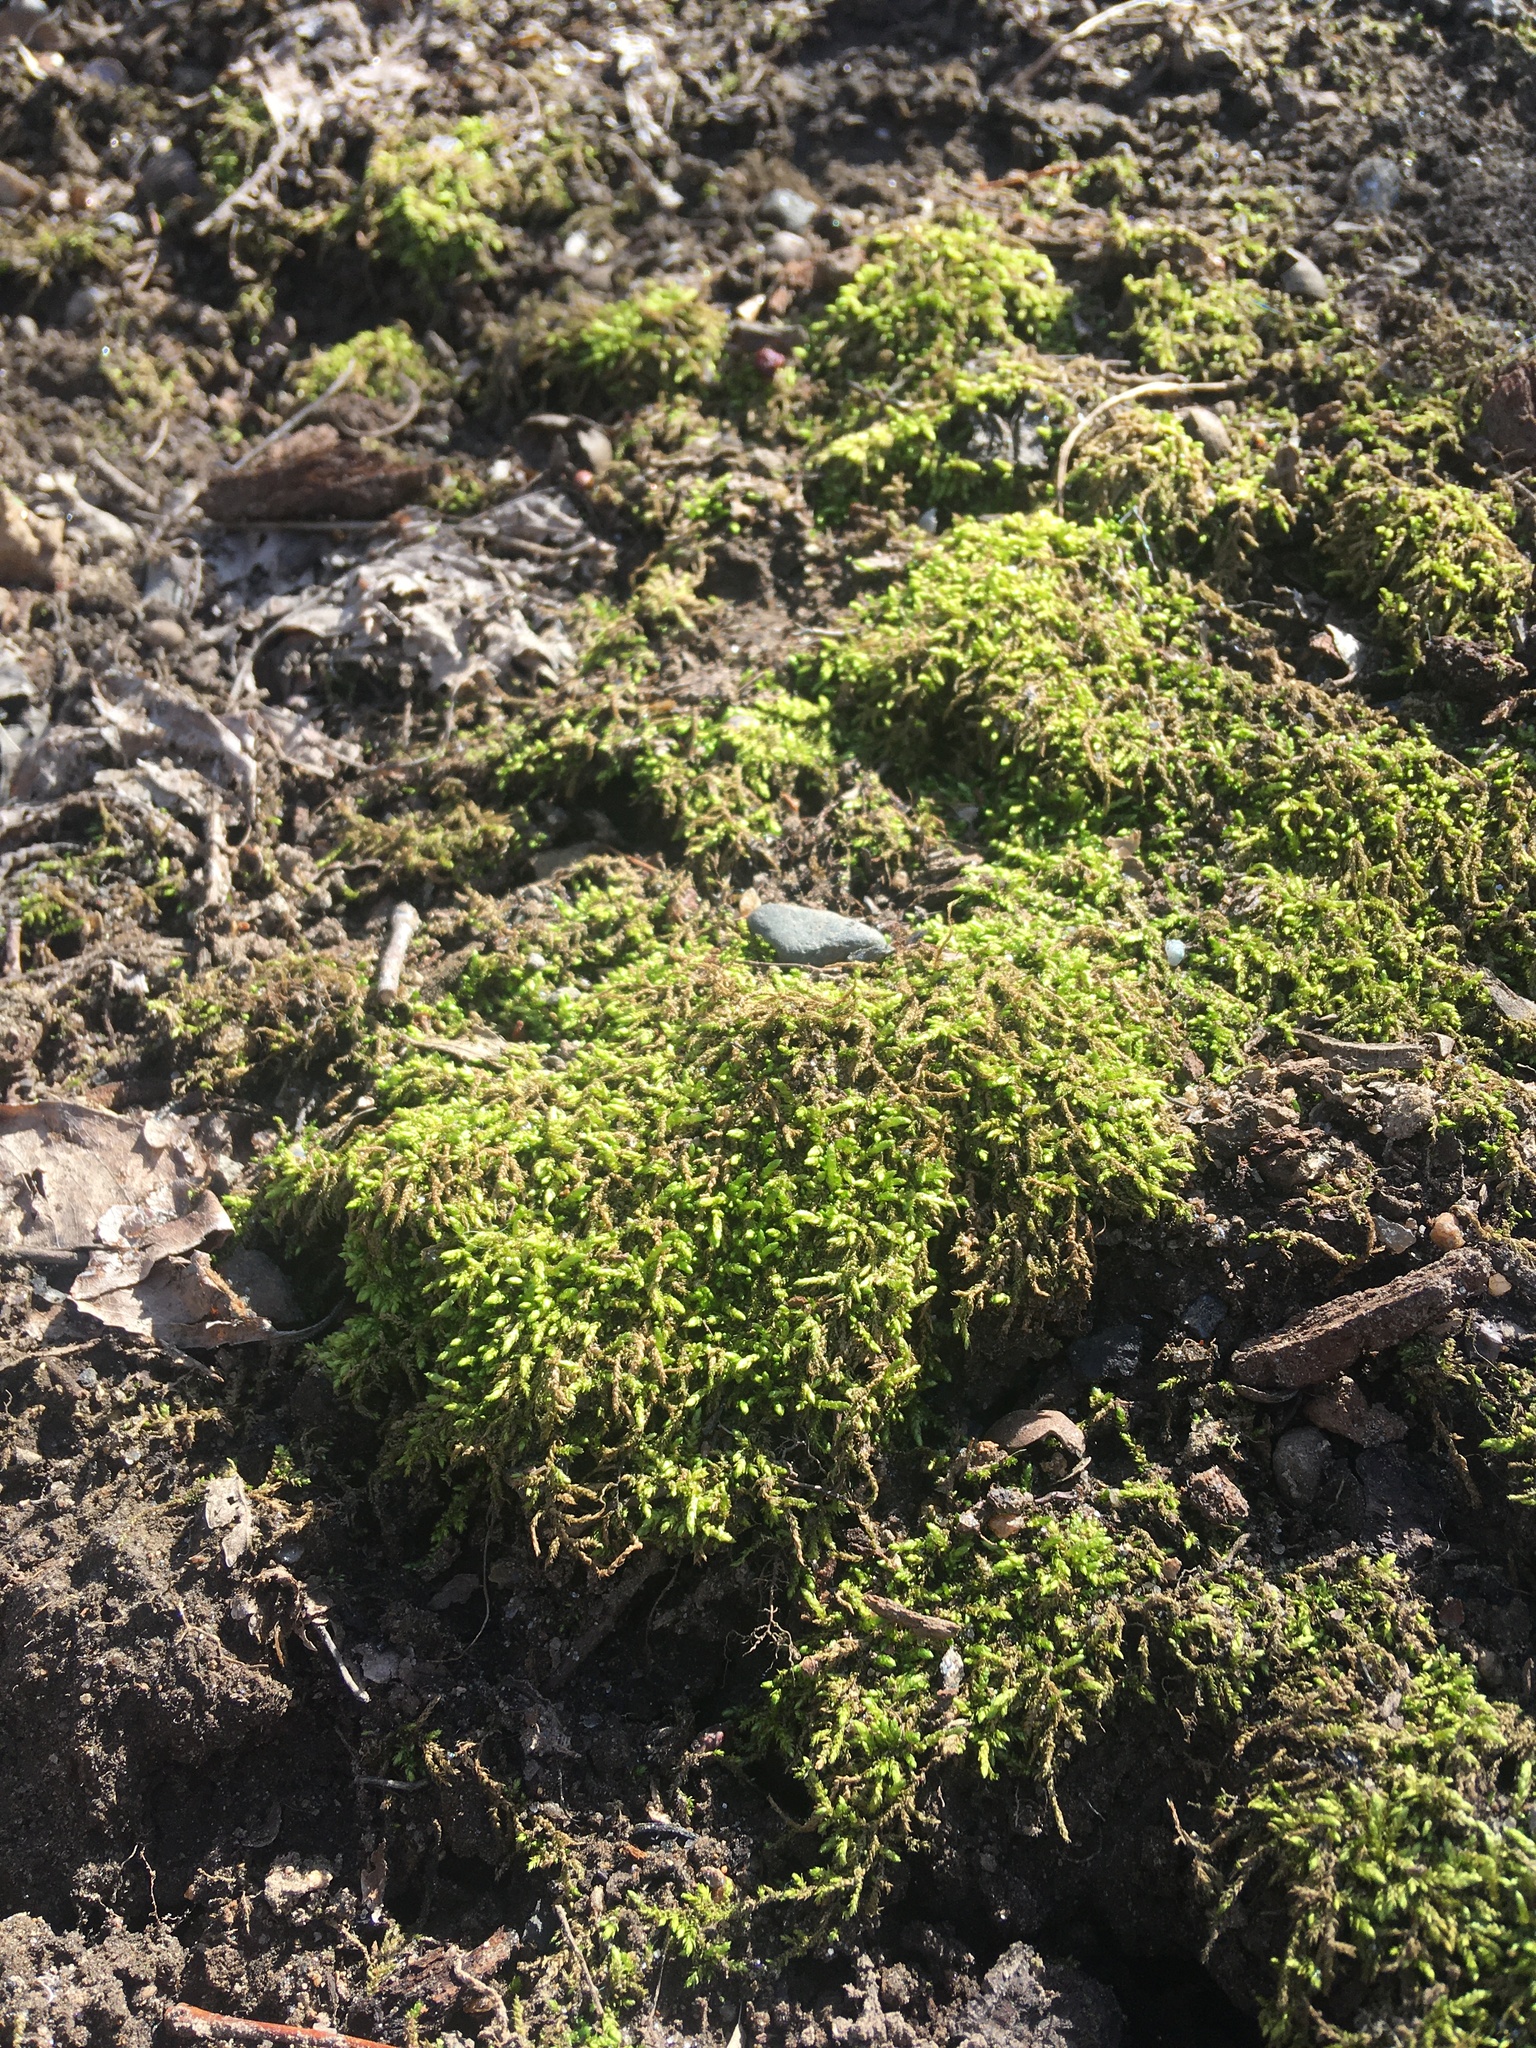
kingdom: Plantae
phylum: Bryophyta
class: Bryopsida
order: Hypnales
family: Entodontaceae
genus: Entodon
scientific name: Entodon seductrix
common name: Round-stemmed entodon moss
